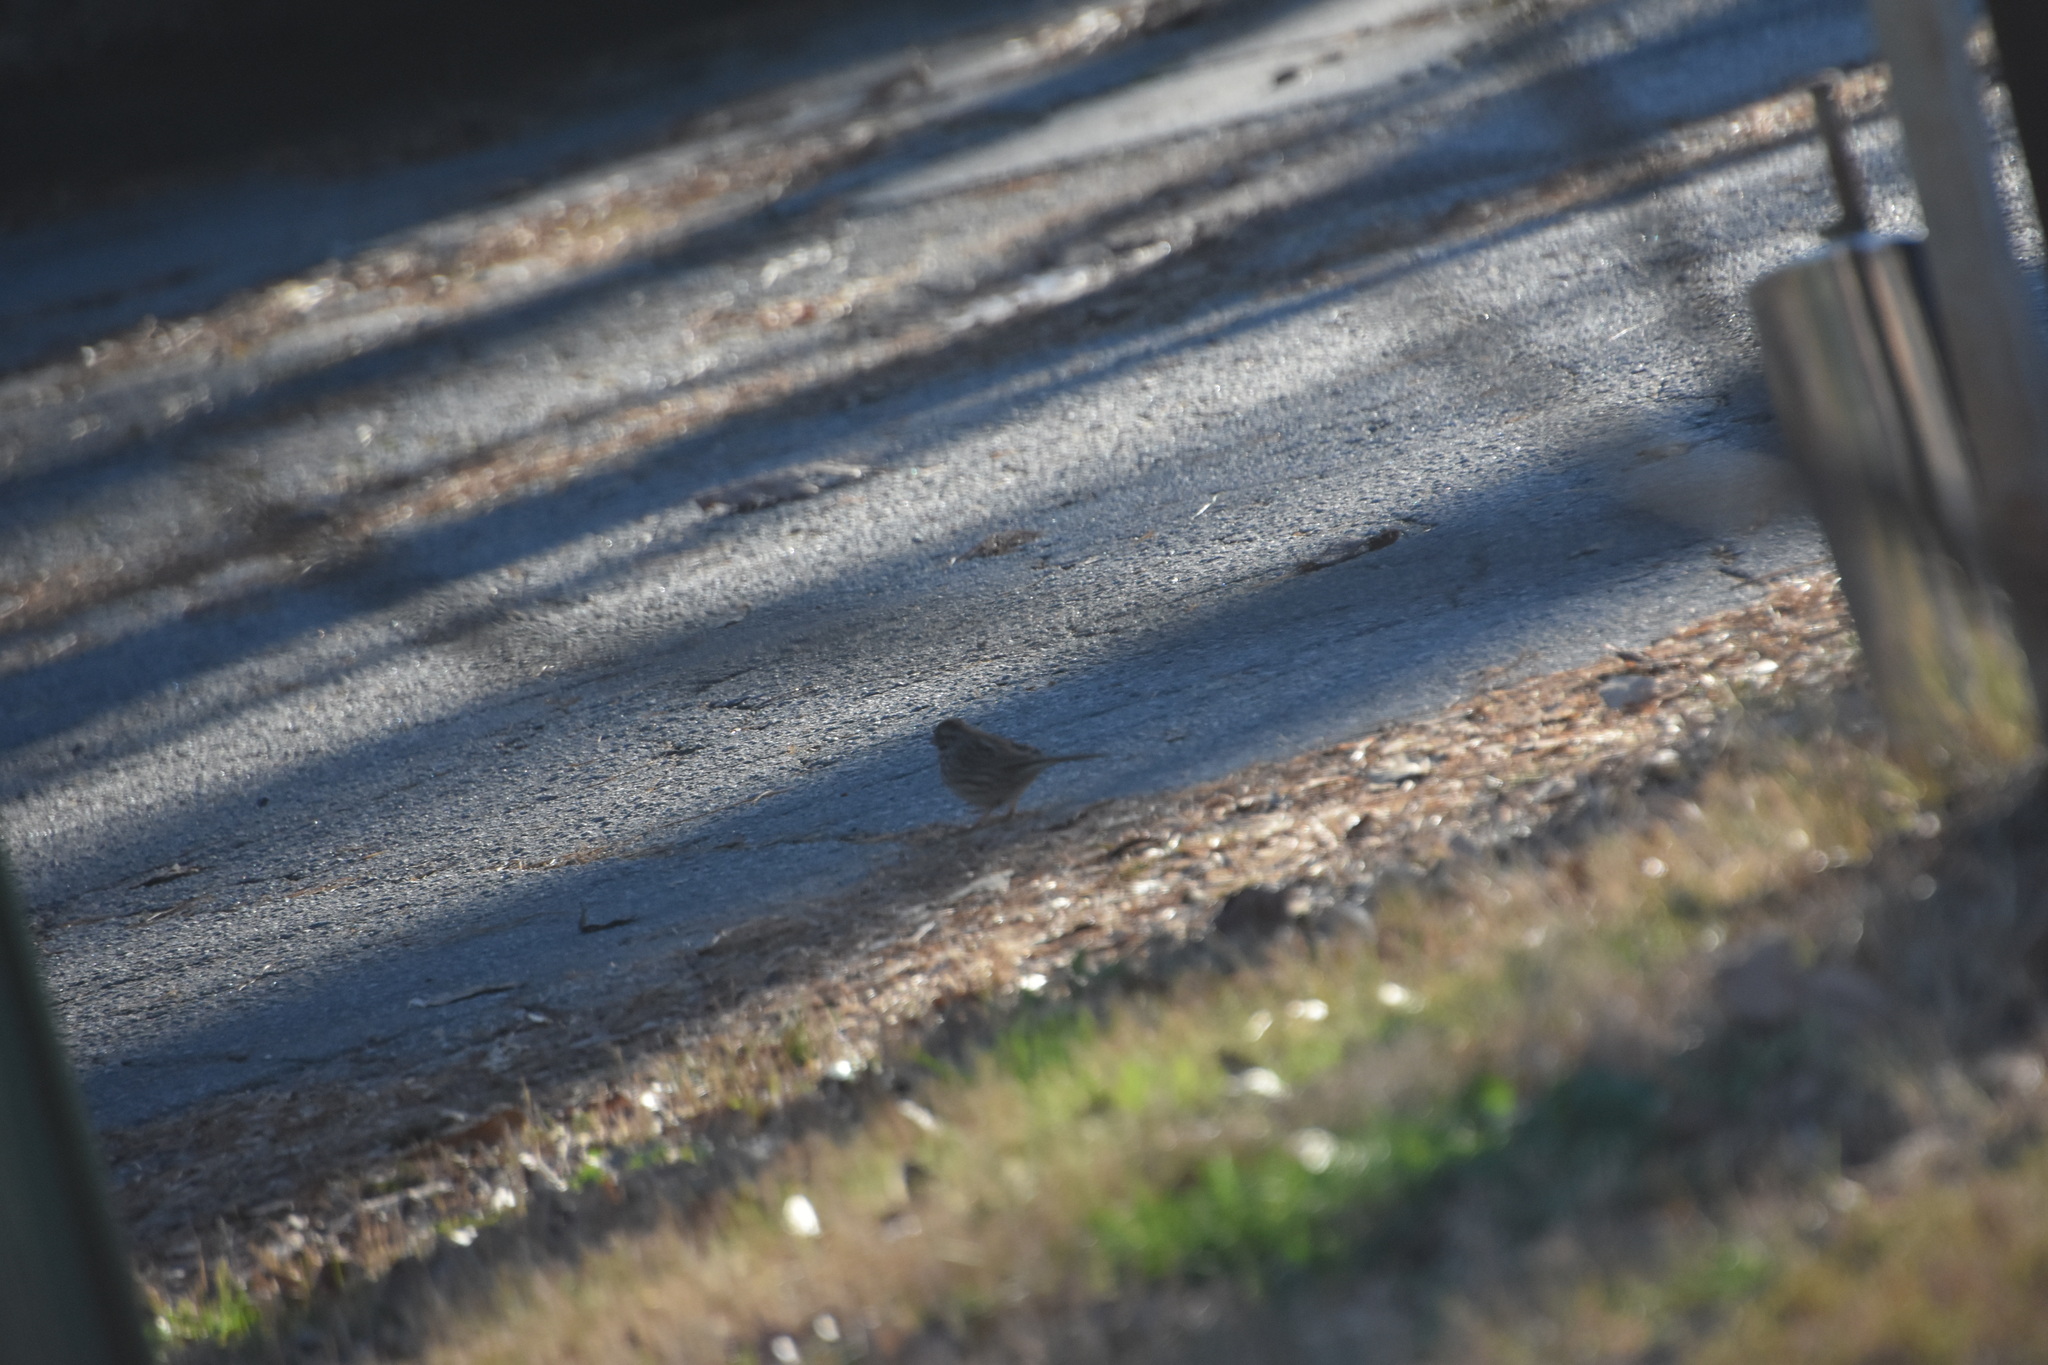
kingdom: Animalia
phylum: Chordata
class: Aves
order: Passeriformes
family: Passerellidae
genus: Melospiza
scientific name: Melospiza melodia
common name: Song sparrow
